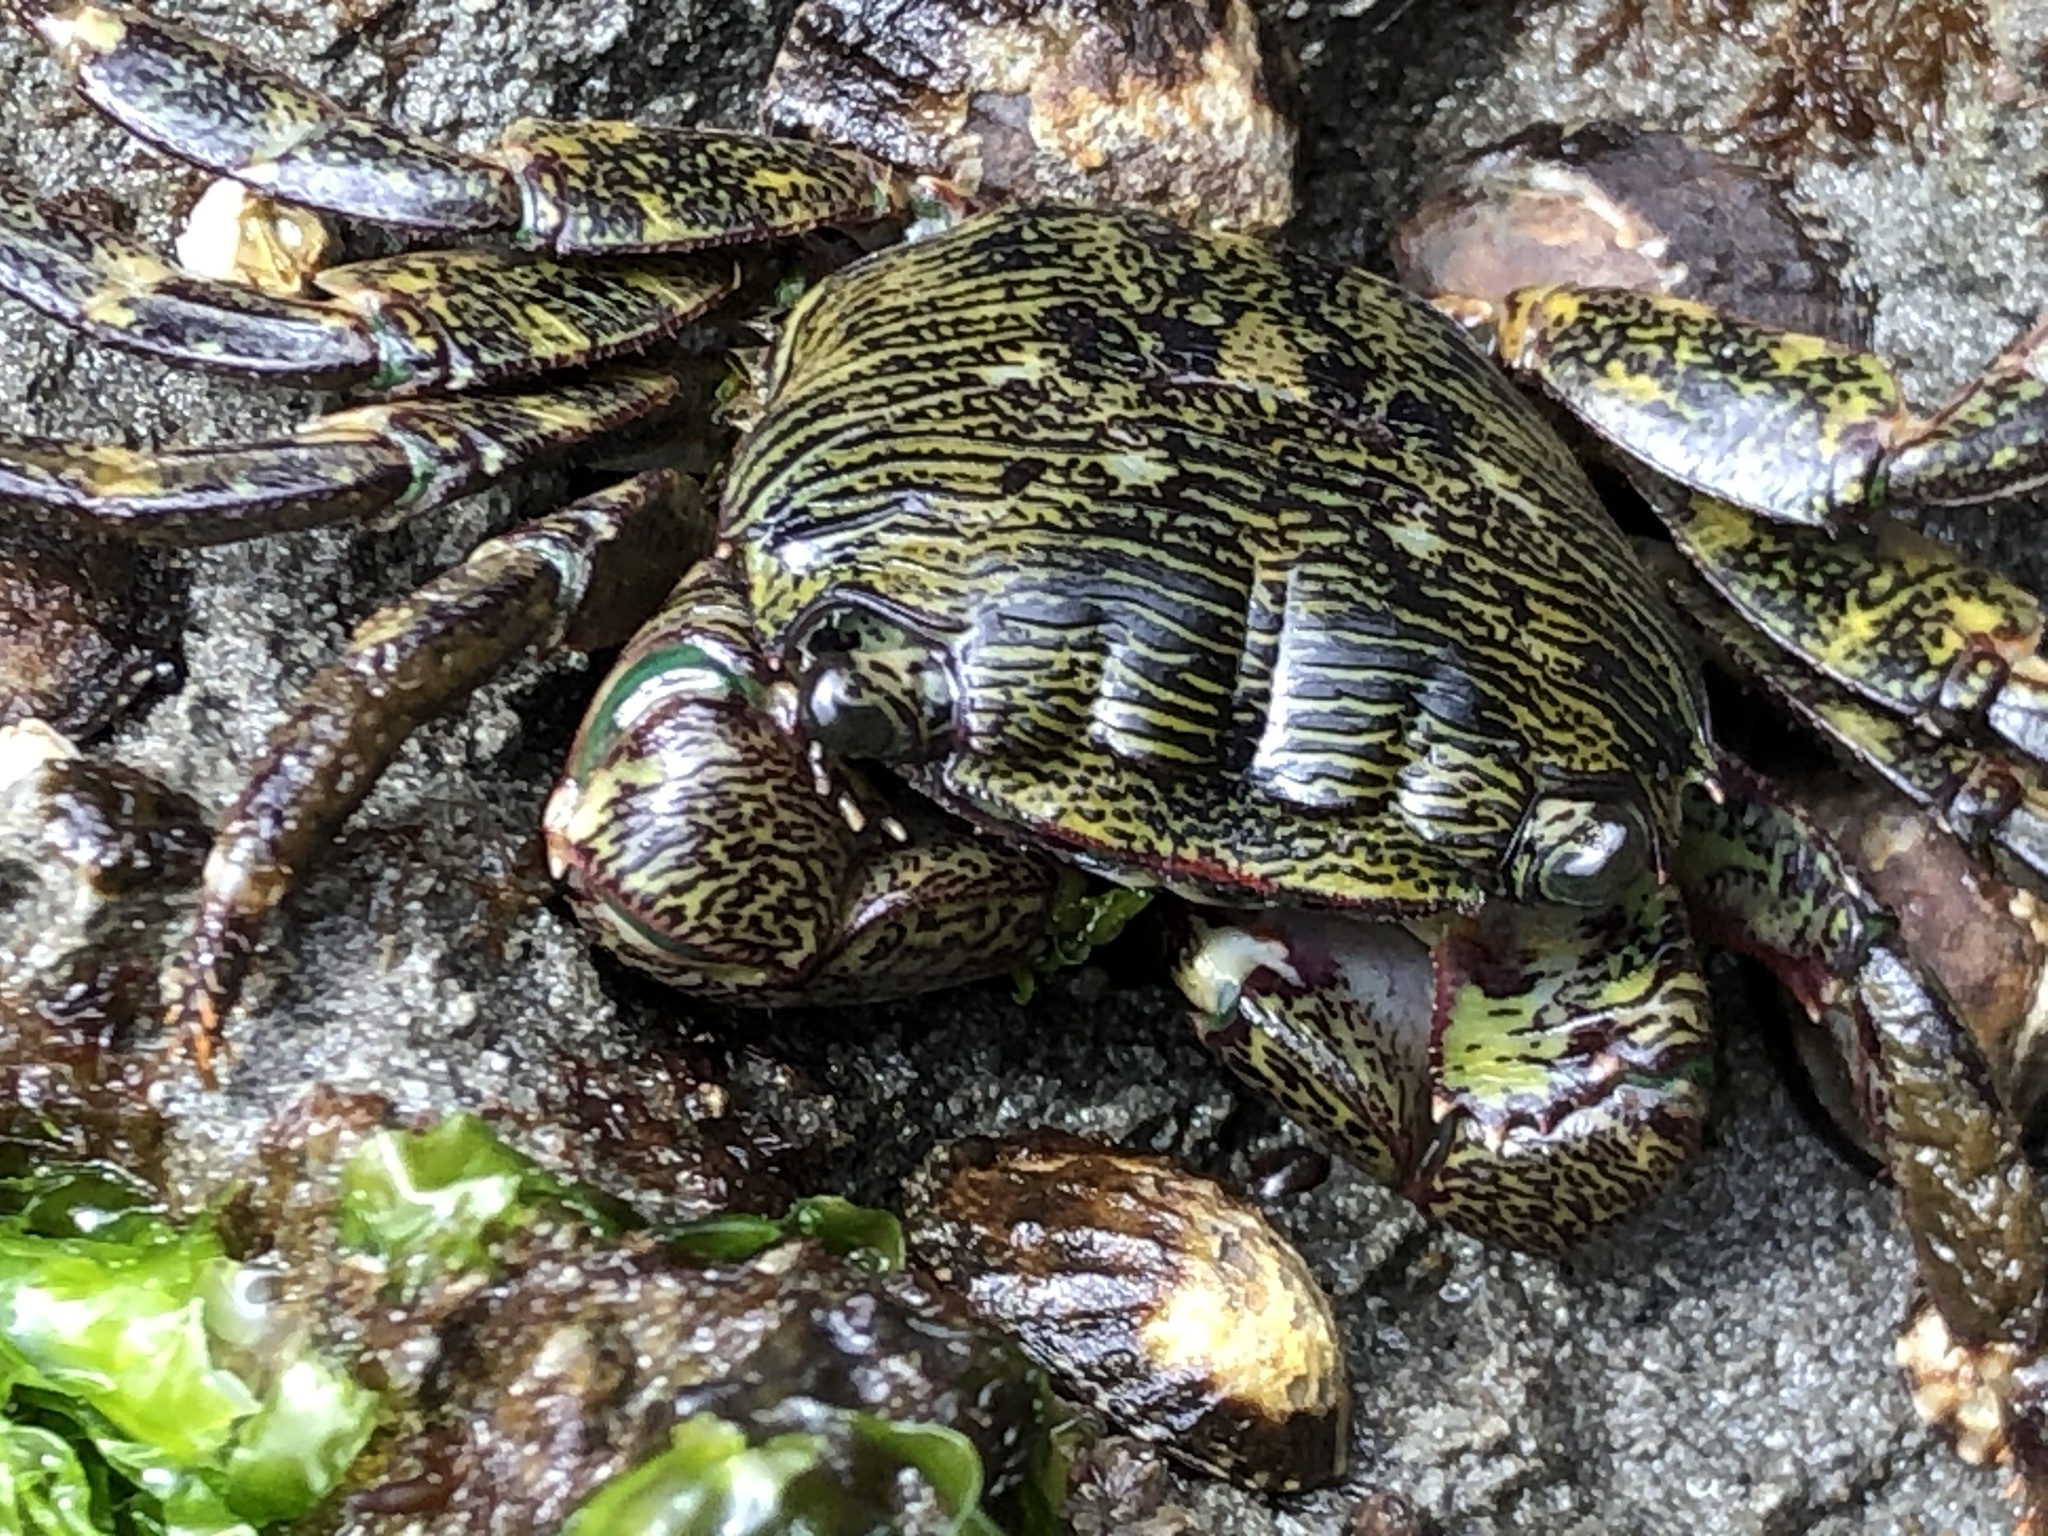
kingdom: Animalia
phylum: Arthropoda
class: Malacostraca
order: Decapoda
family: Grapsidae
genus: Pachygrapsus
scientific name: Pachygrapsus crassipes
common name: Striped shore crab
